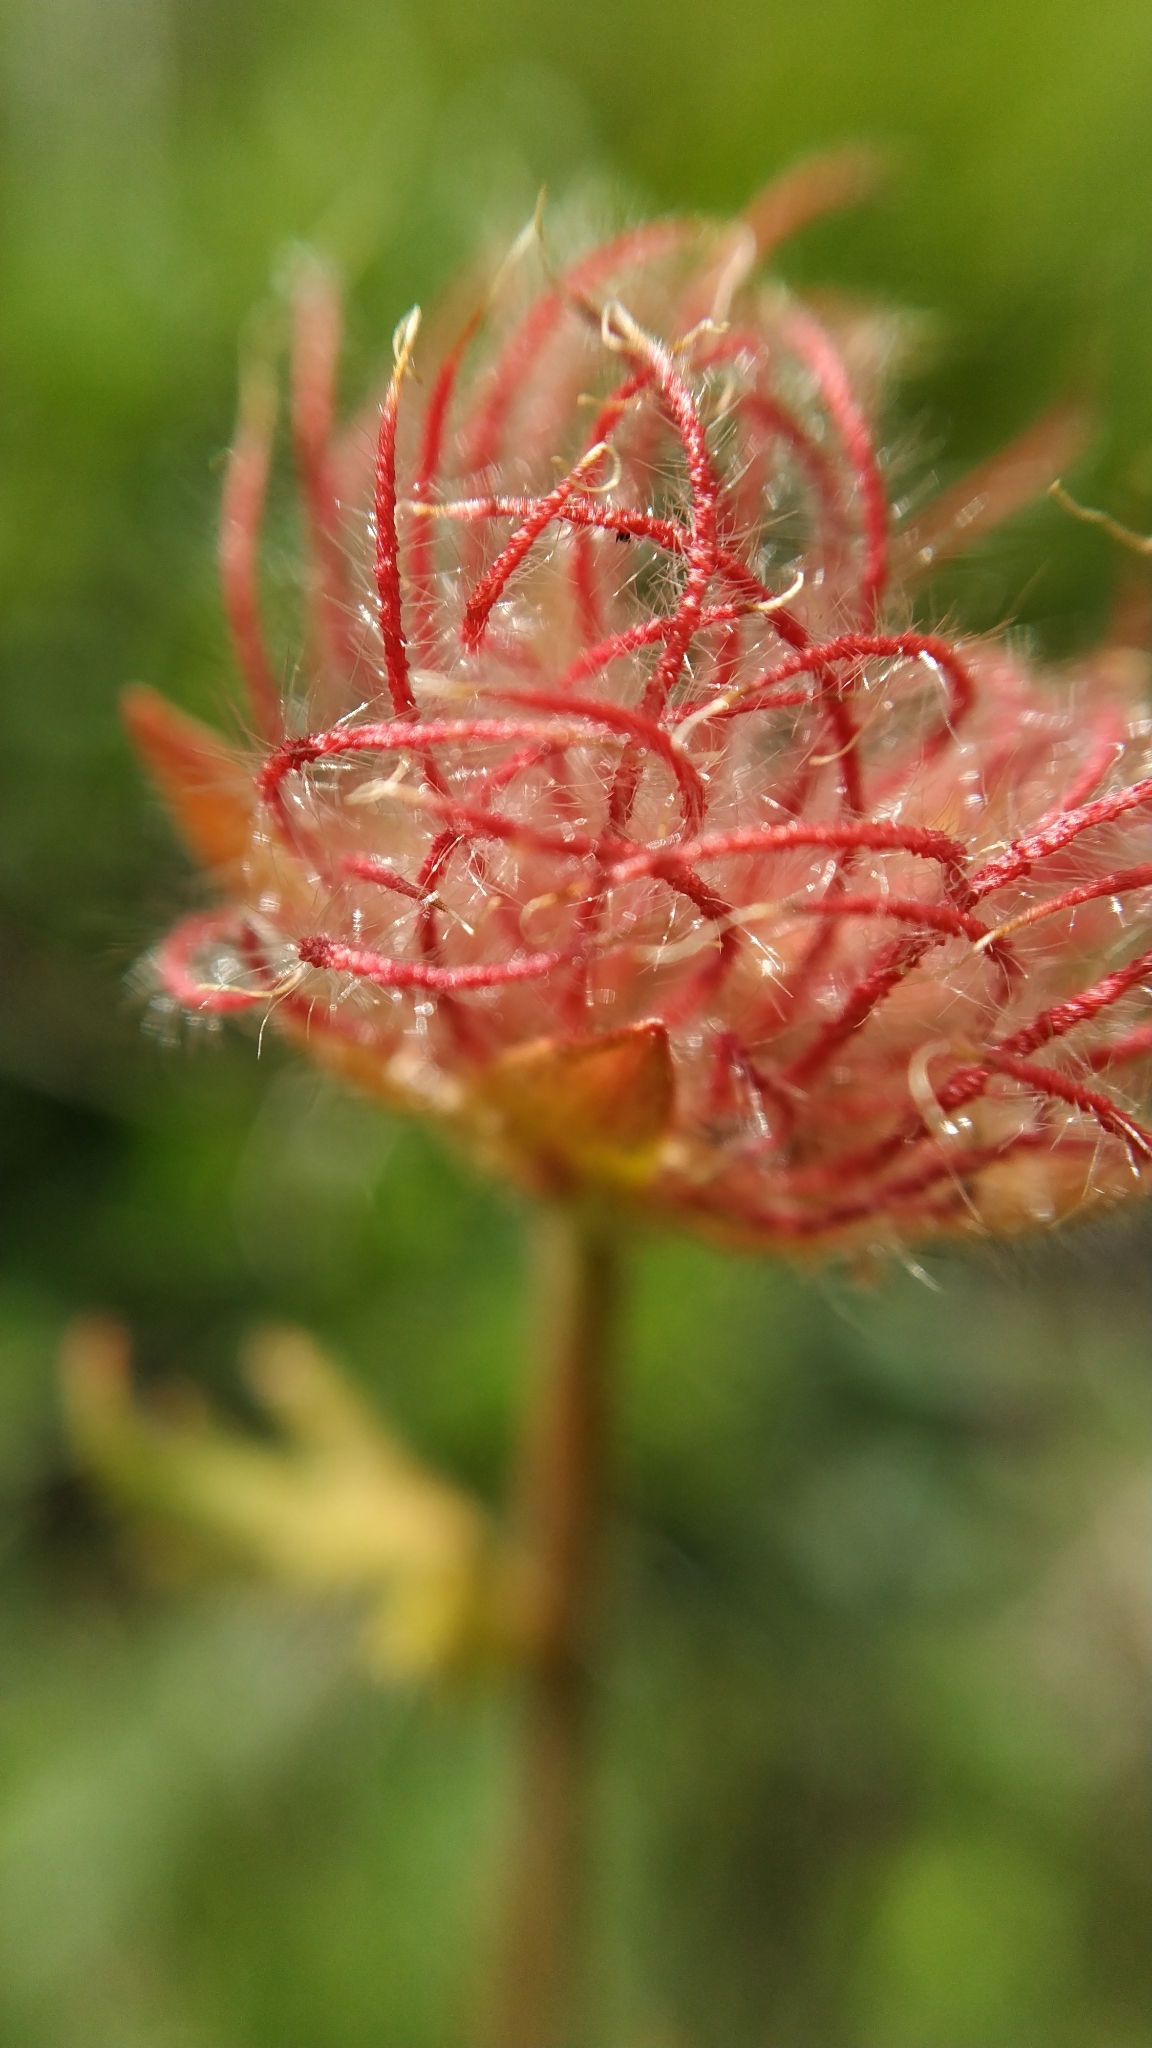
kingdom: Plantae
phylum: Tracheophyta
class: Magnoliopsida
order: Rosales
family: Rosaceae
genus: Geum
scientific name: Geum montanum
